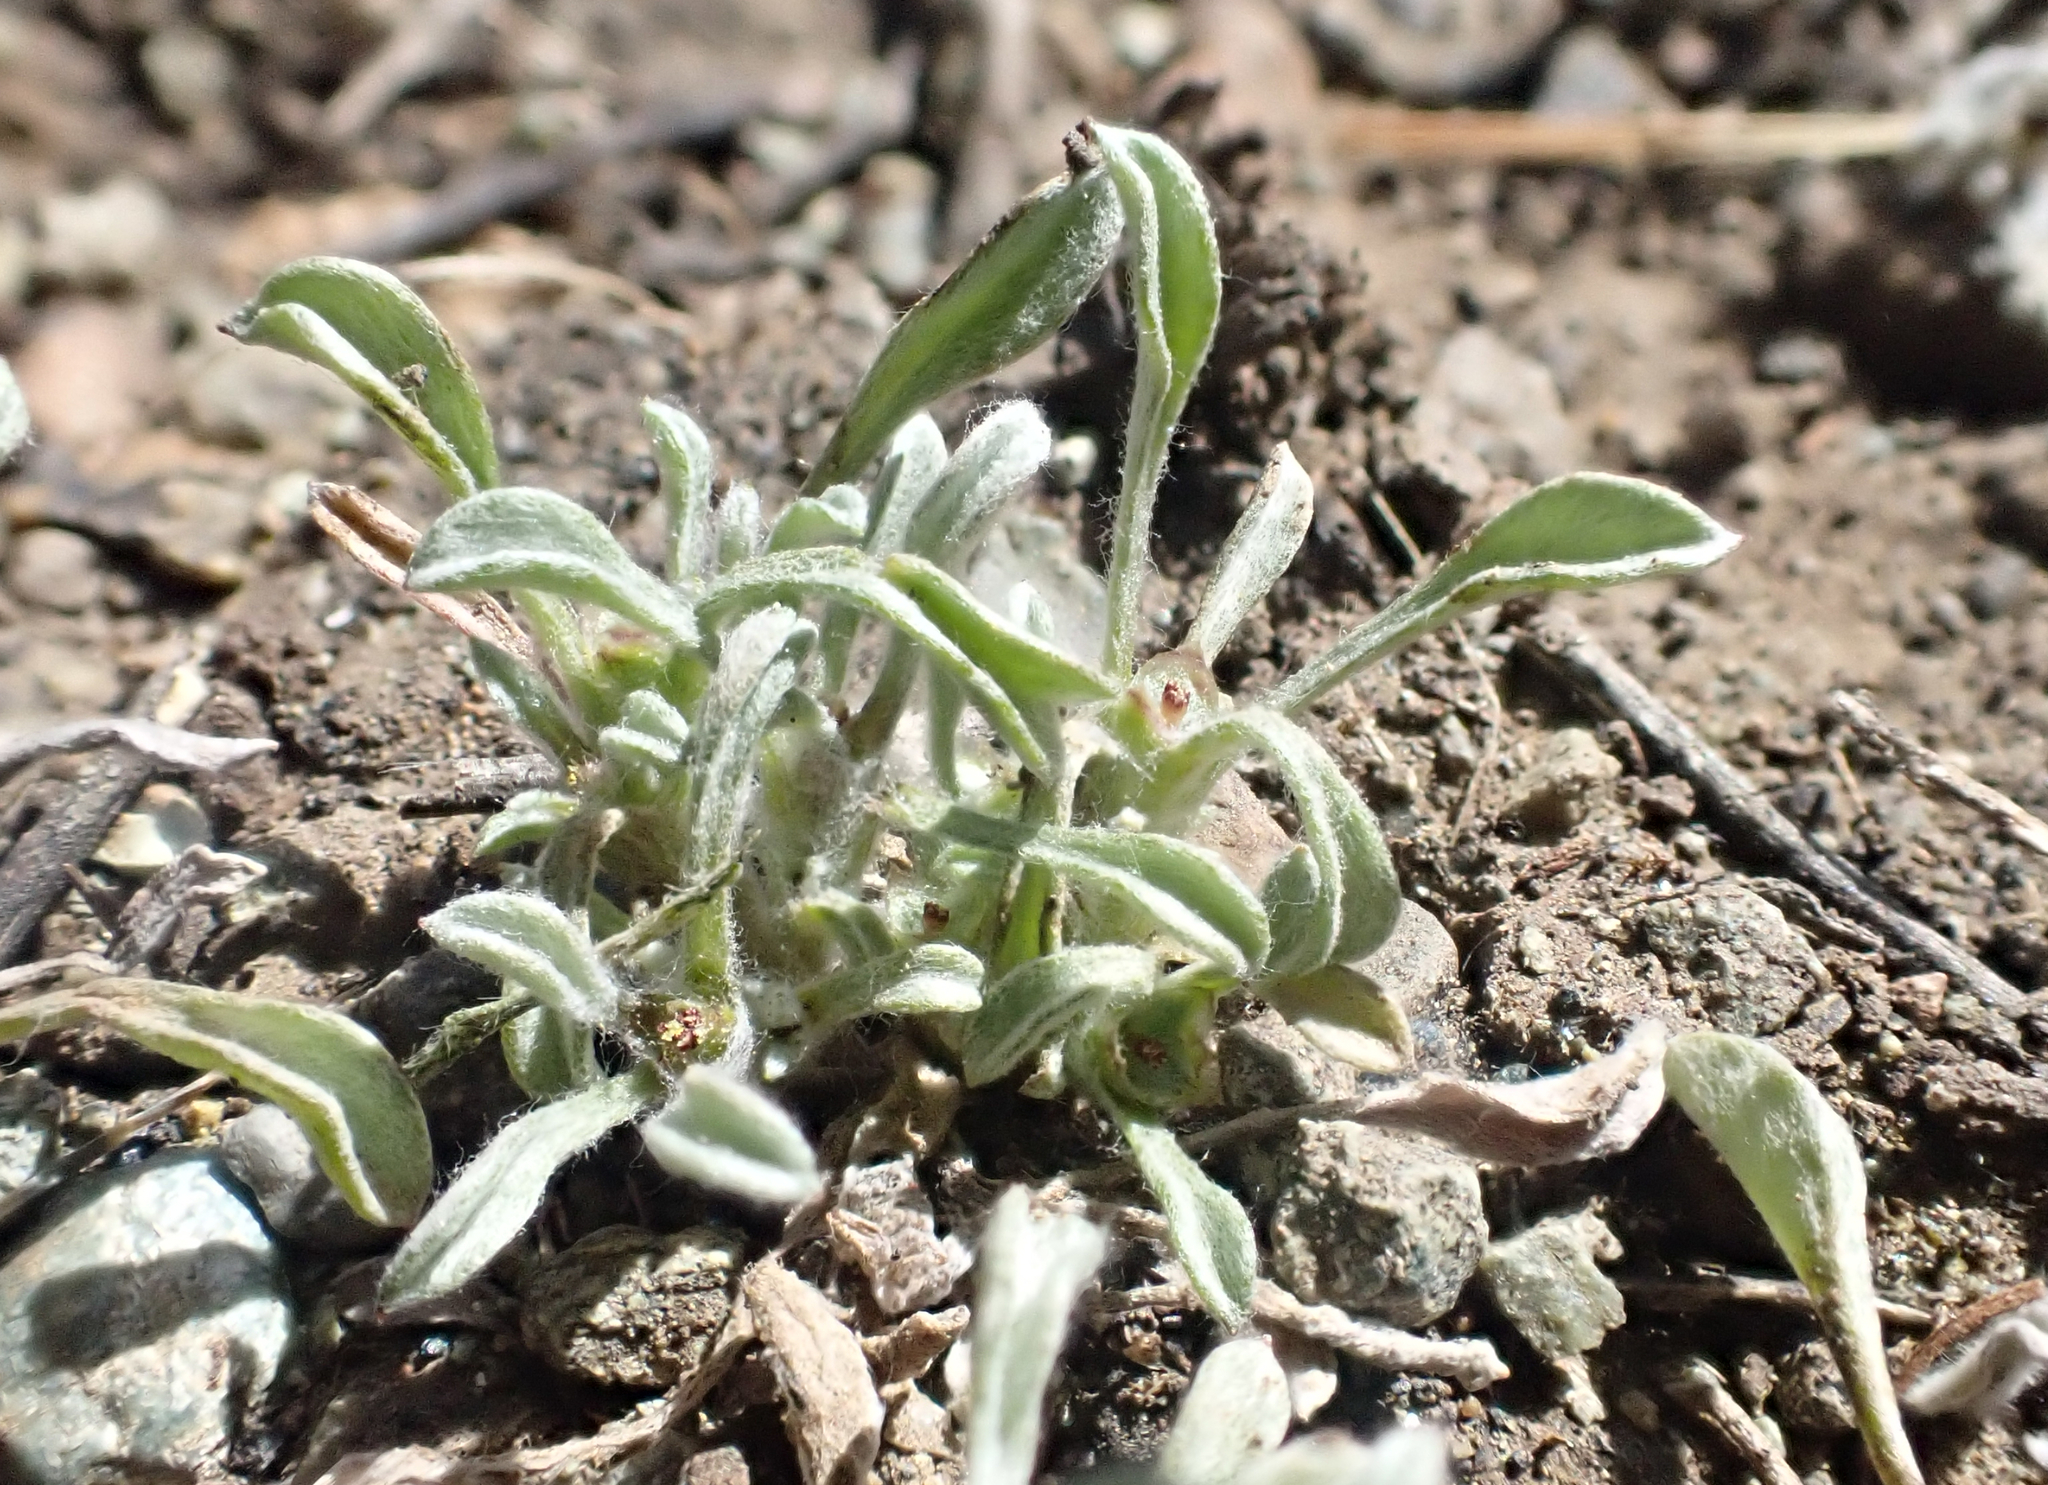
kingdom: Plantae
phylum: Tracheophyta
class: Magnoliopsida
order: Asterales
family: Asteraceae
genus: Hesperevax
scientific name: Hesperevax sparsiflora
